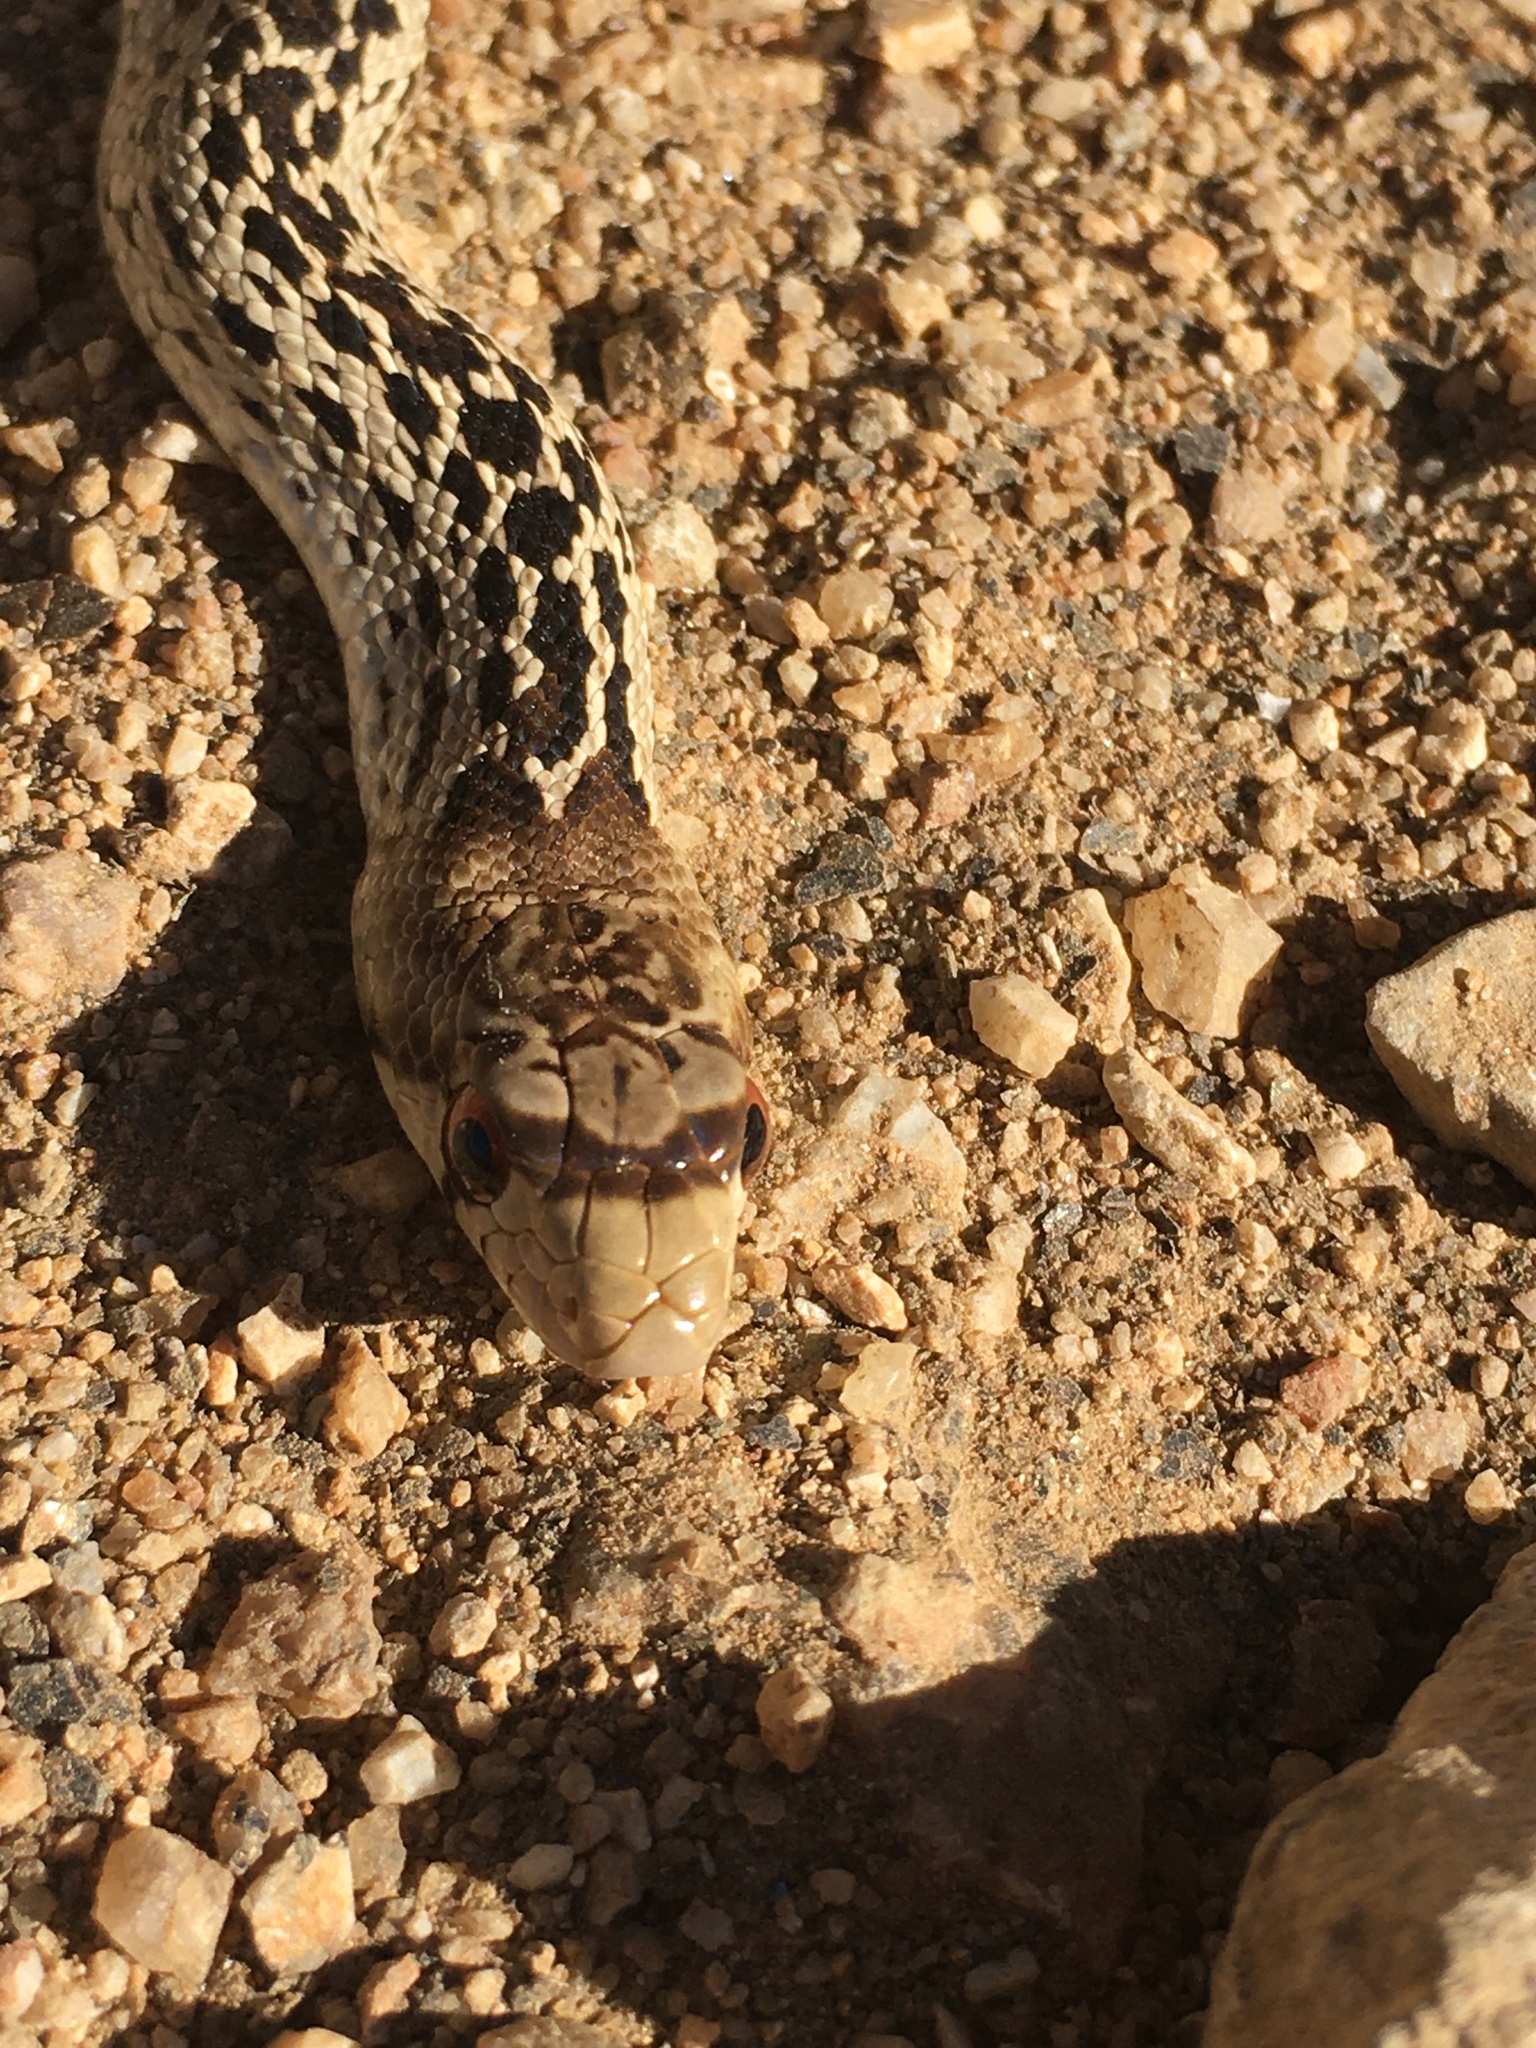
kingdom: Animalia
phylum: Chordata
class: Squamata
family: Colubridae
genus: Pituophis
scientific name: Pituophis catenifer
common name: Gopher snake
